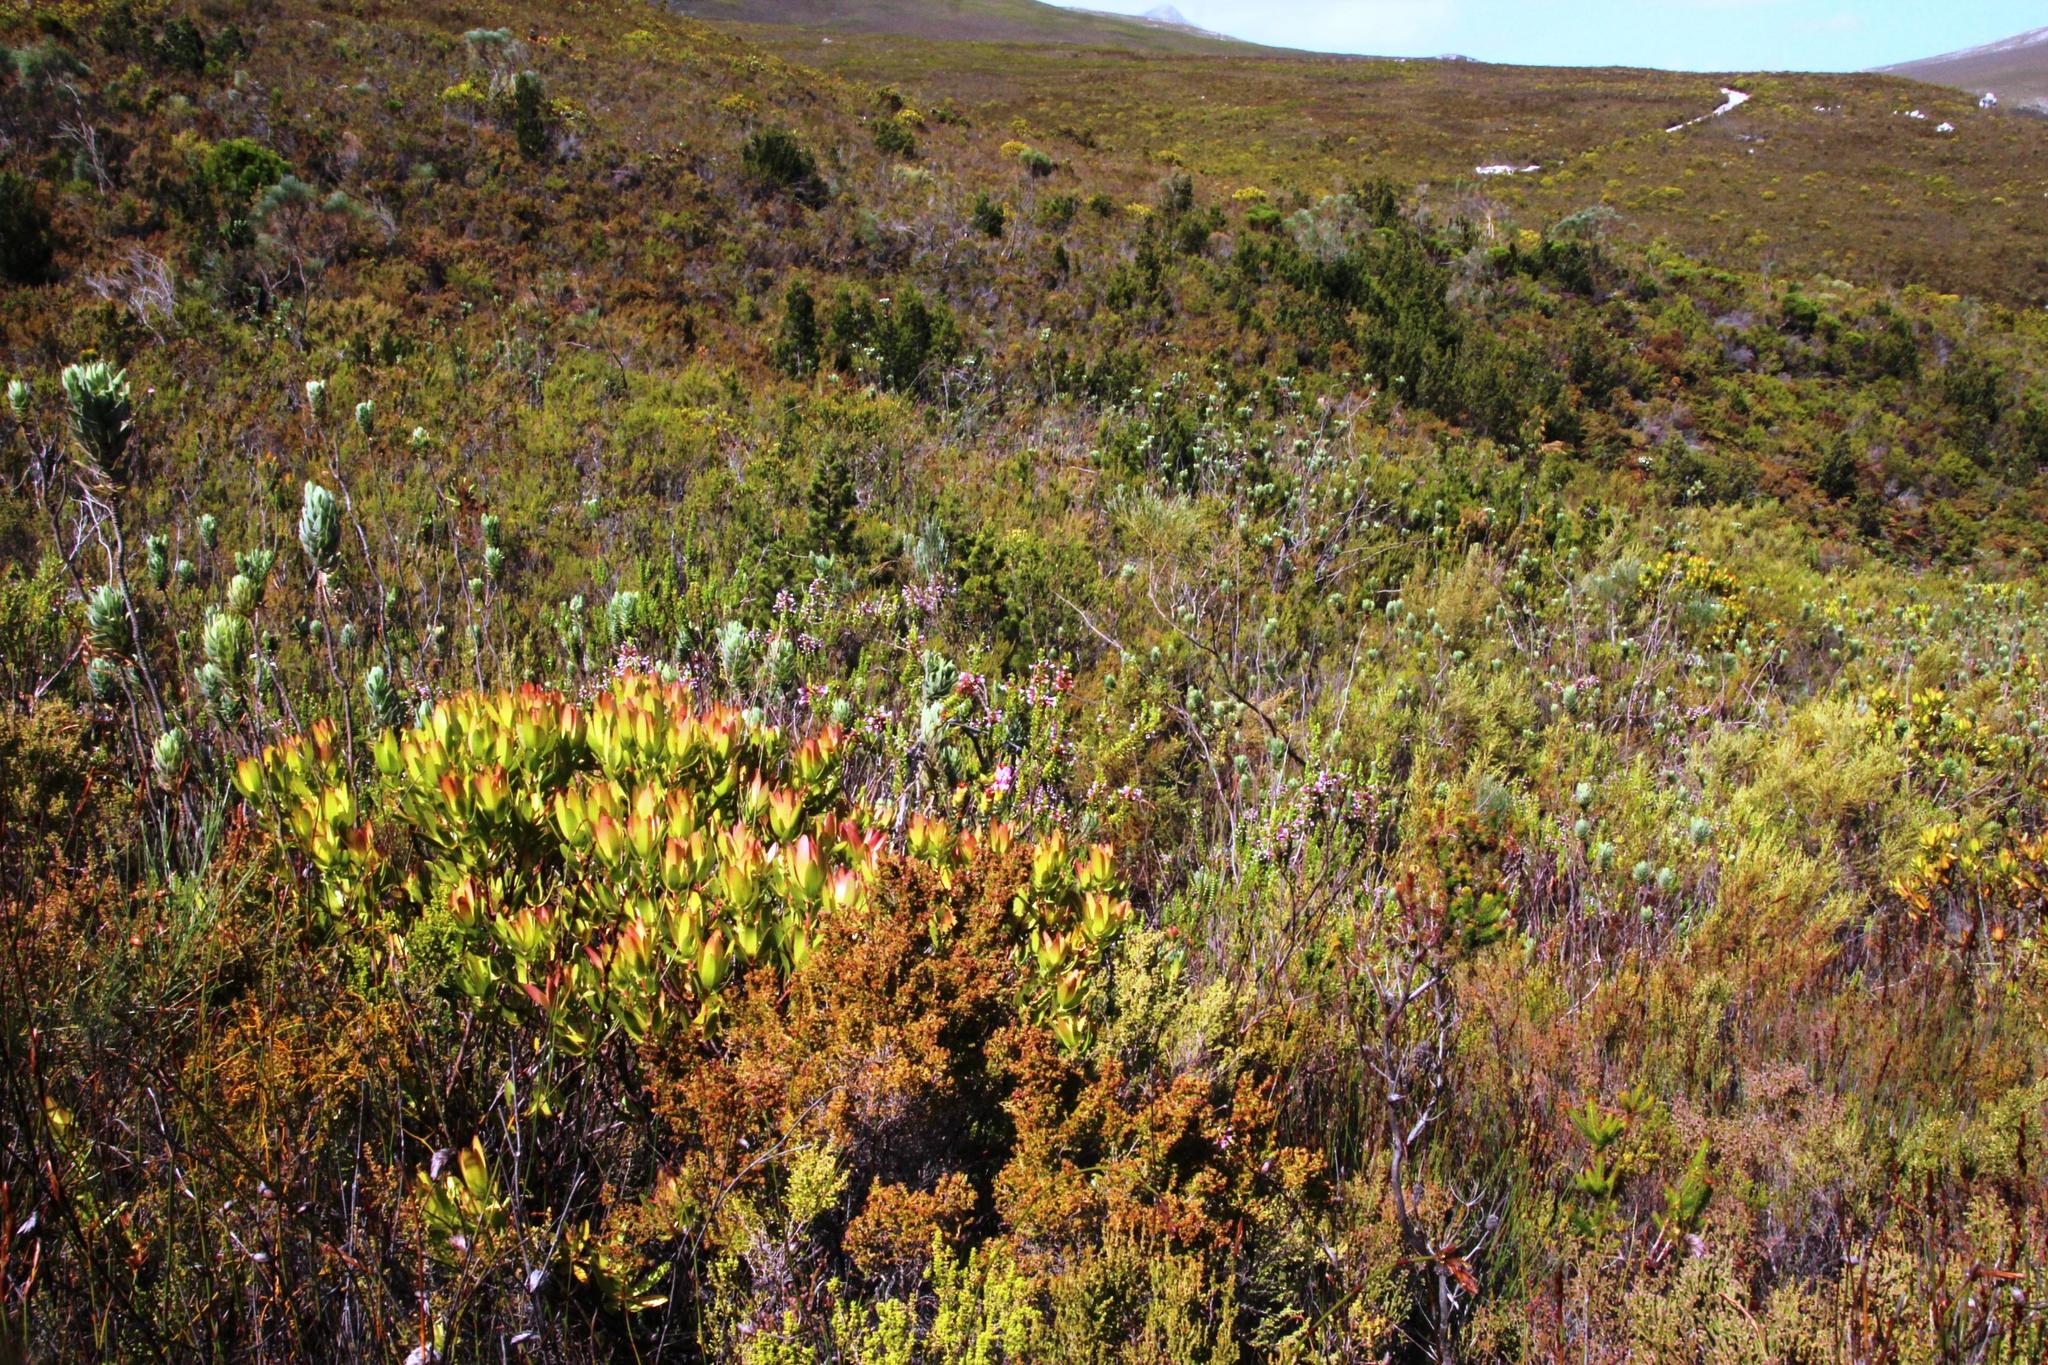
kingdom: Plantae
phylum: Tracheophyta
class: Magnoliopsida
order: Proteales
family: Proteaceae
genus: Leucadendron
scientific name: Leucadendron gandogeri
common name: Broad-leaf conebush
